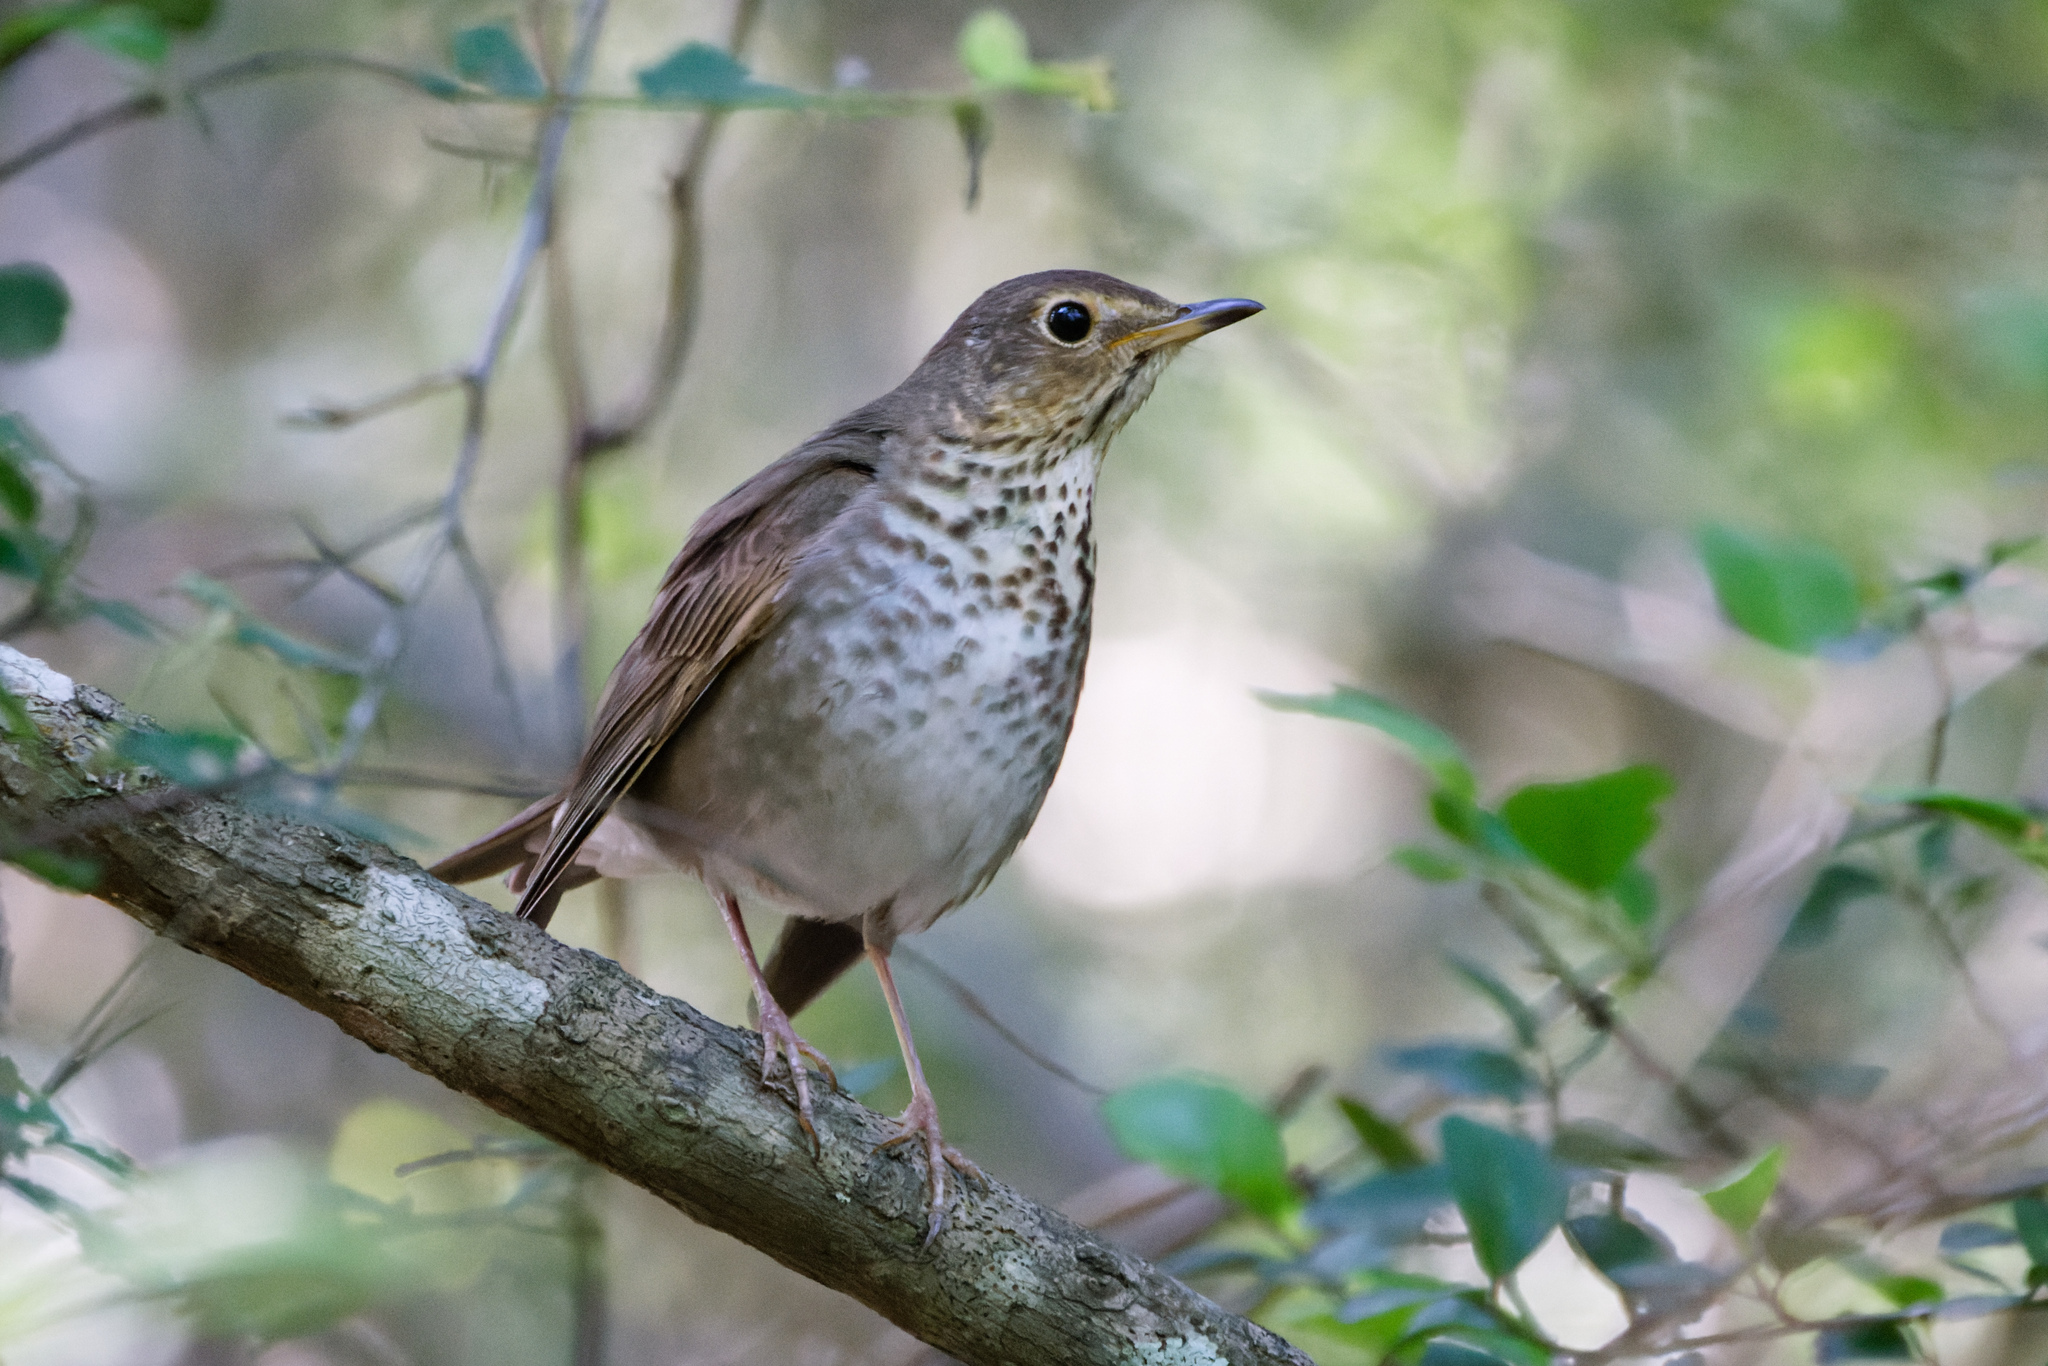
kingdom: Animalia
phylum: Chordata
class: Aves
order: Passeriformes
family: Turdidae
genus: Catharus
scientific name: Catharus ustulatus
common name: Swainson's thrush
